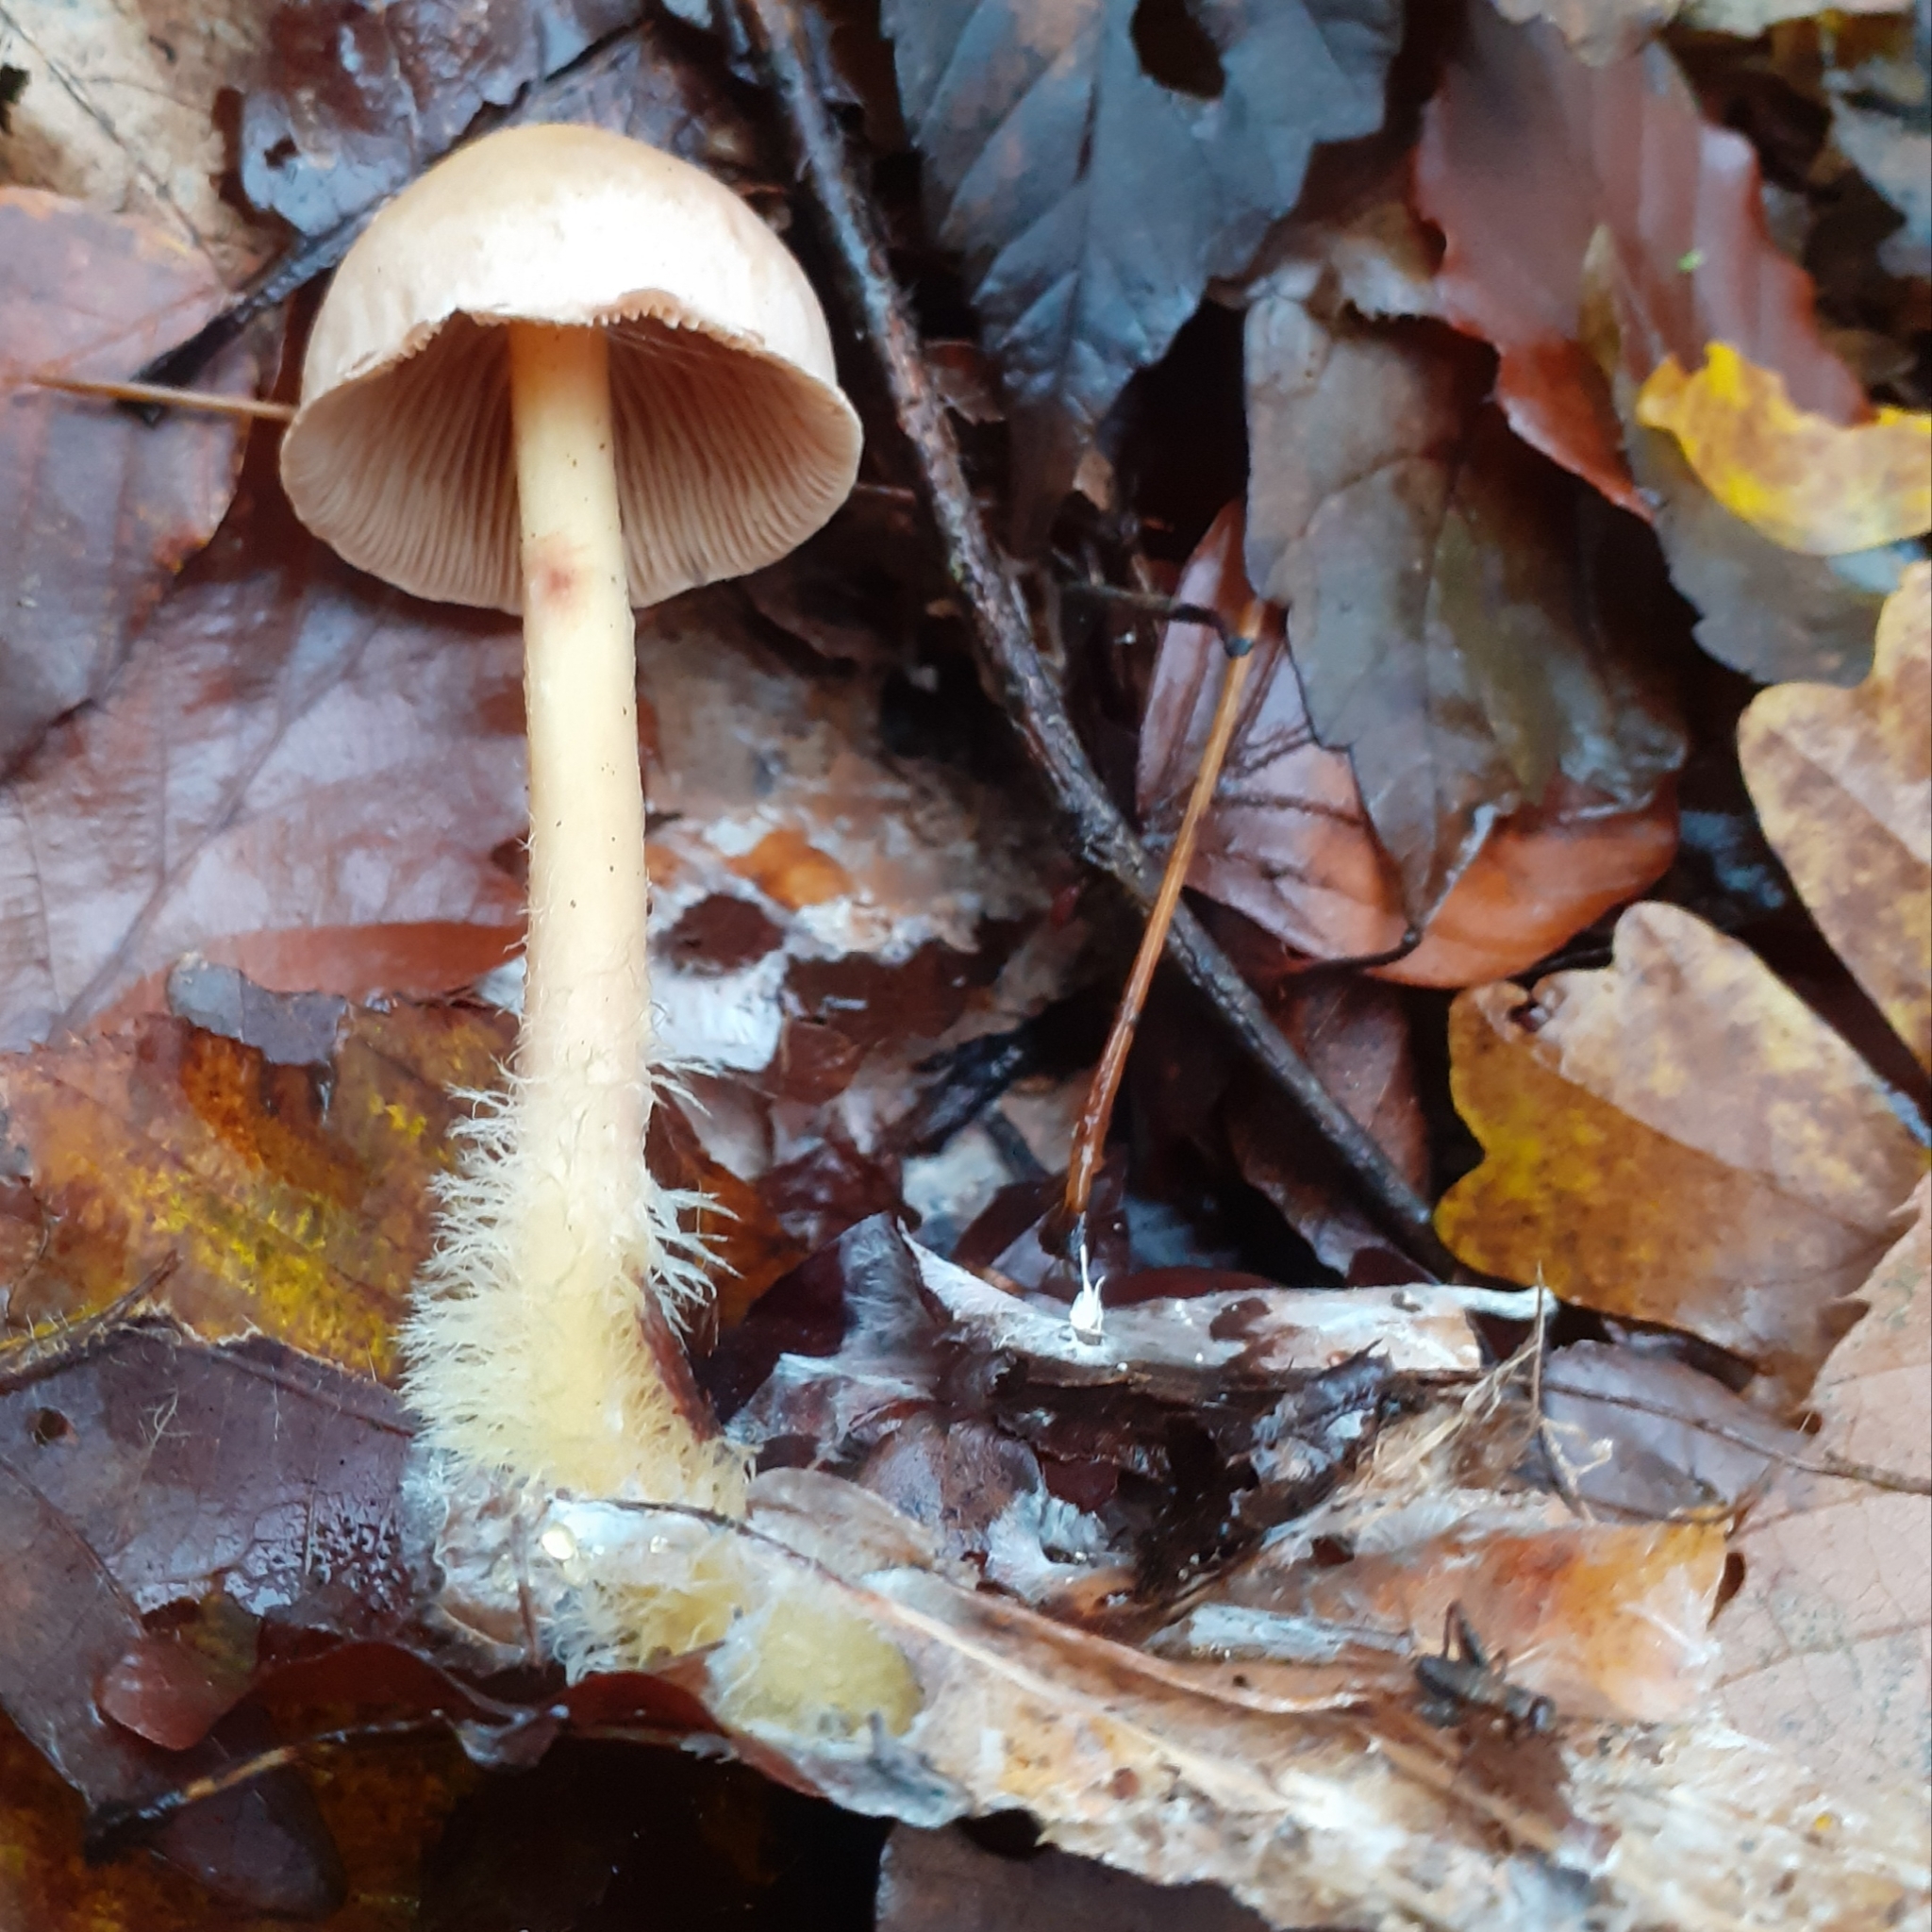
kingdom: Fungi
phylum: Basidiomycota
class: Agaricomycetes
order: Agaricales
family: Omphalotaceae
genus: Collybiopsis
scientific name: Collybiopsis peronata
